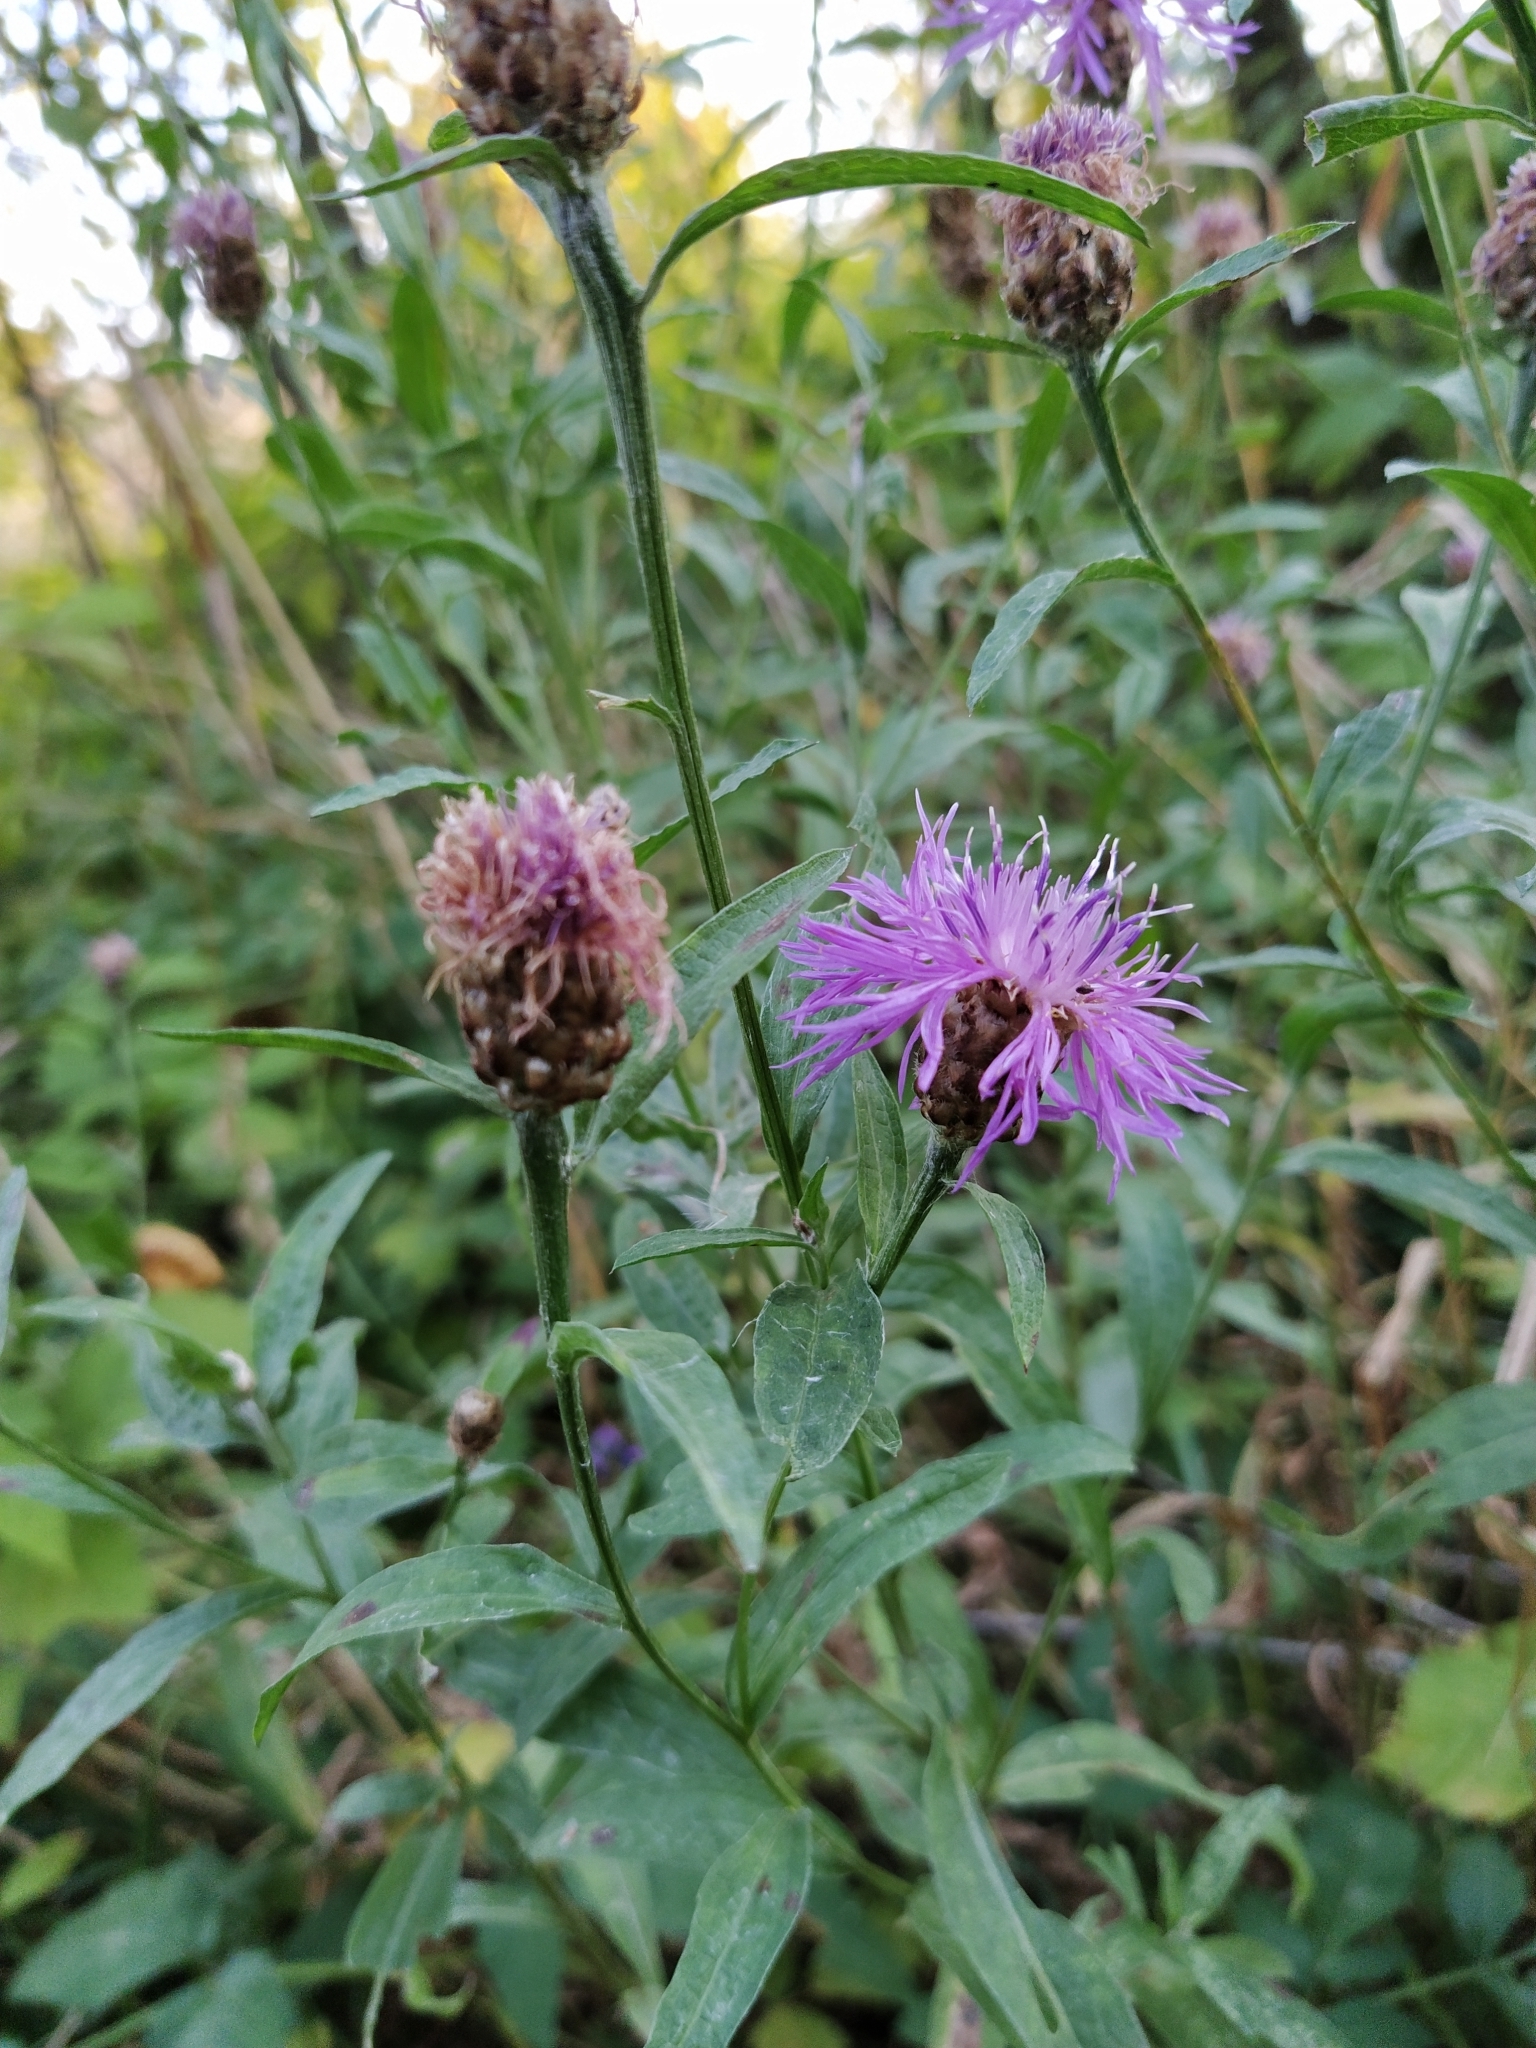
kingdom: Plantae
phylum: Tracheophyta
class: Magnoliopsida
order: Asterales
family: Asteraceae
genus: Centaurea
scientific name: Centaurea jacea
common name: Brown knapweed
